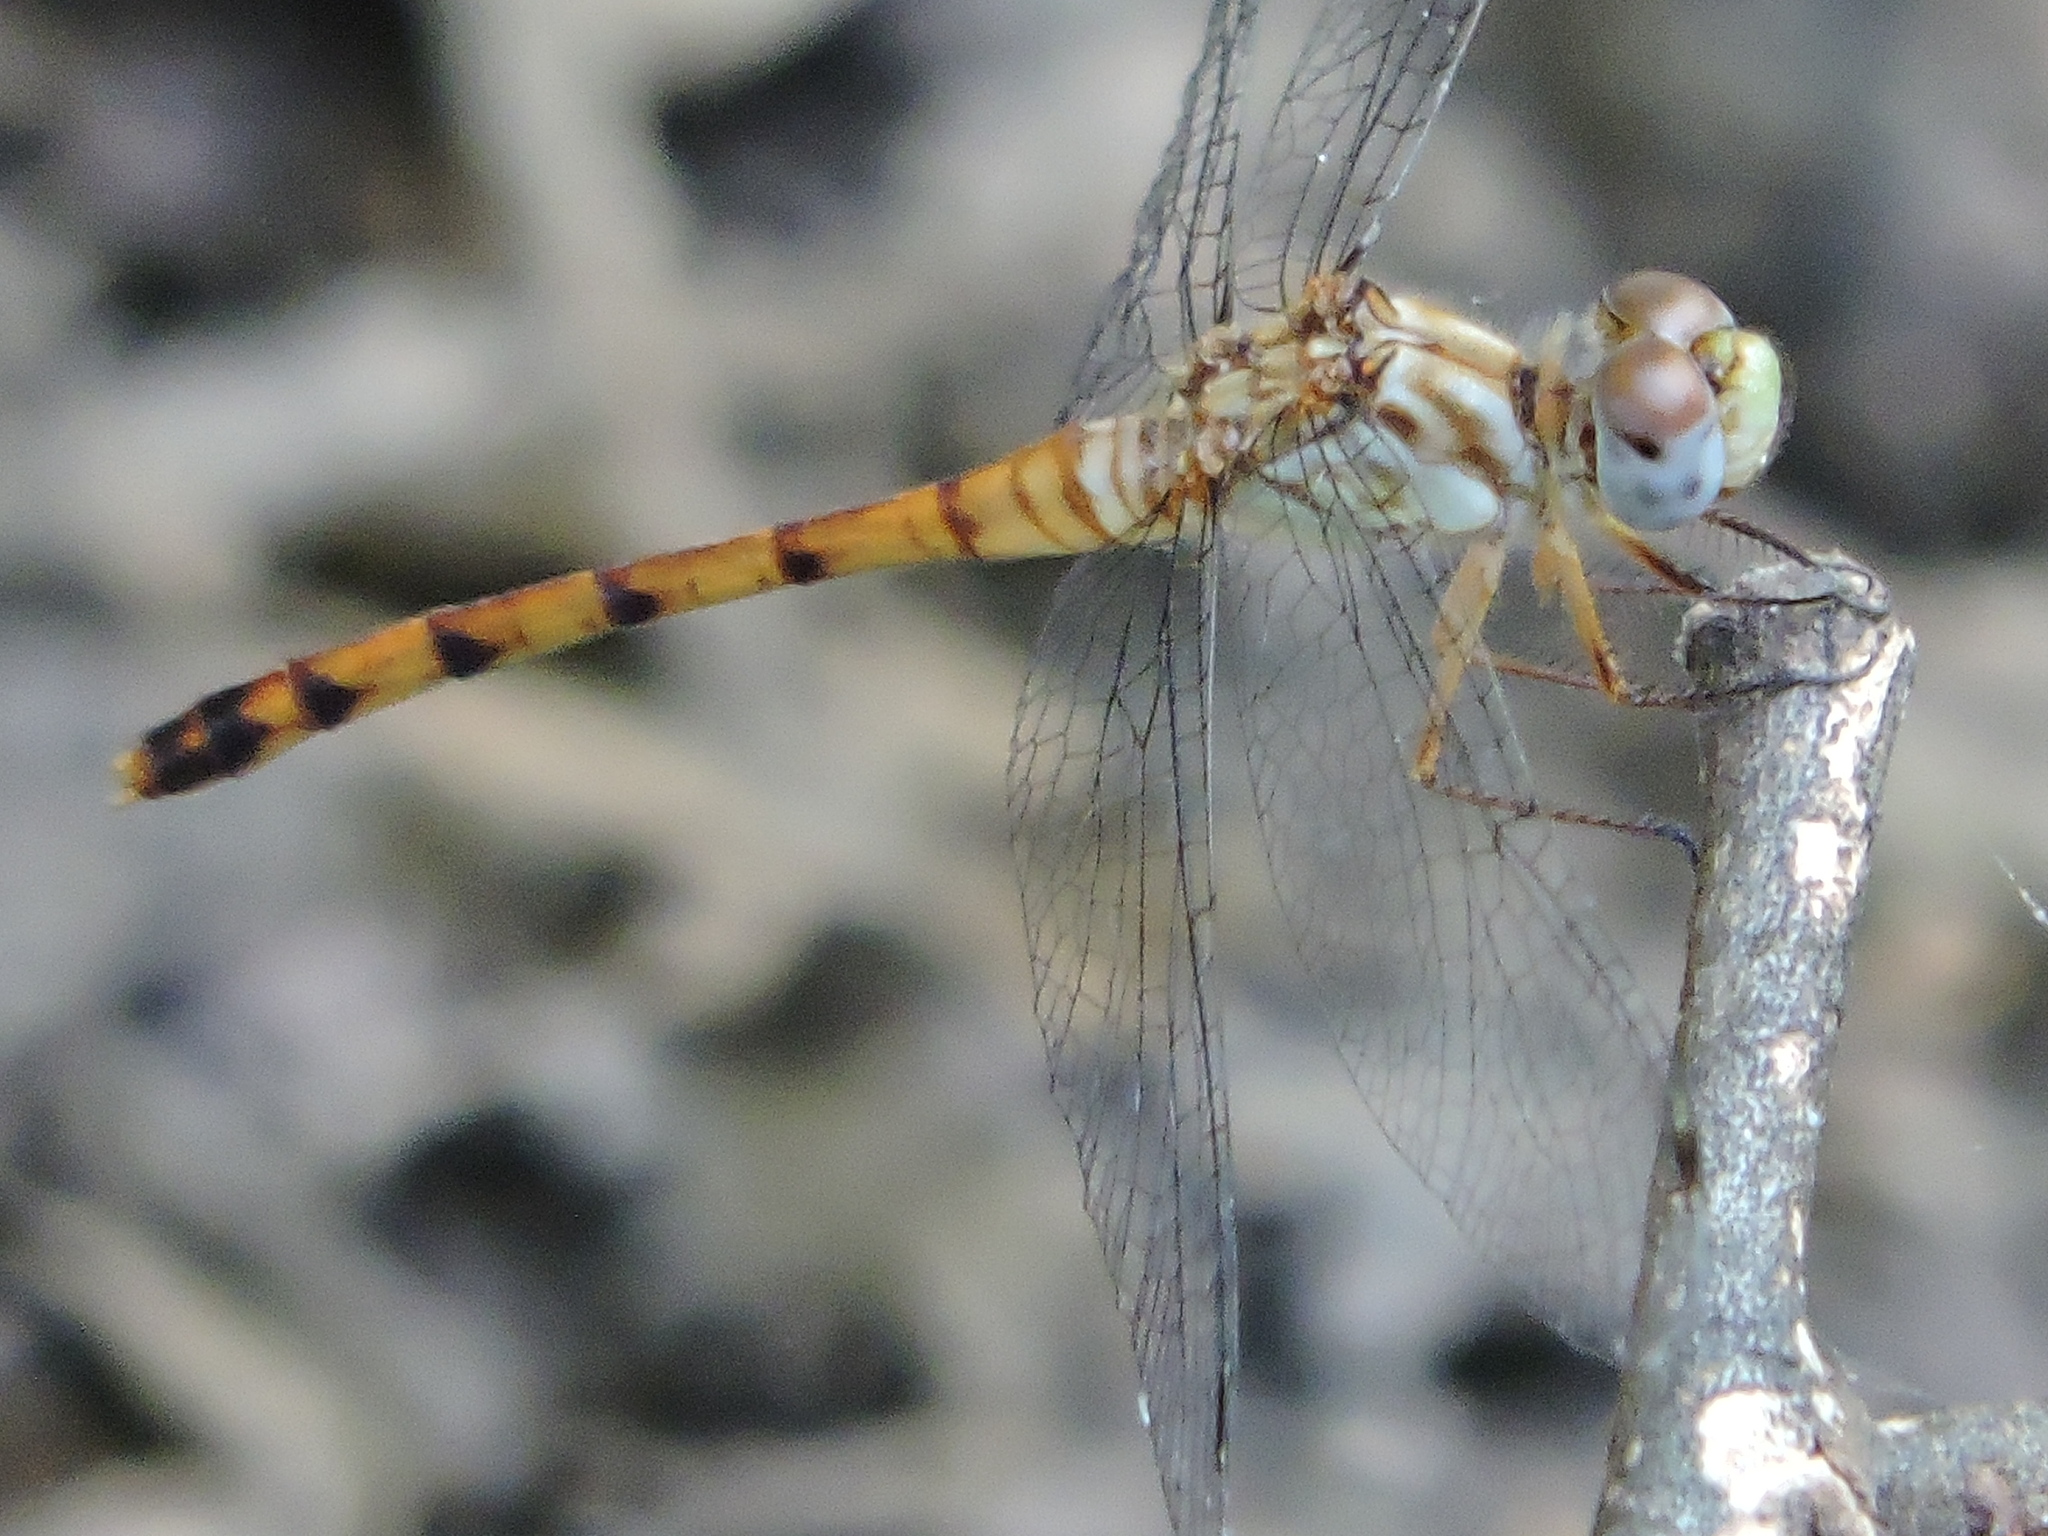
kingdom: Animalia
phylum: Arthropoda
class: Insecta
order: Odonata
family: Libellulidae
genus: Sympetrum
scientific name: Sympetrum ambiguum
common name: Blue-faced meadowhawk
